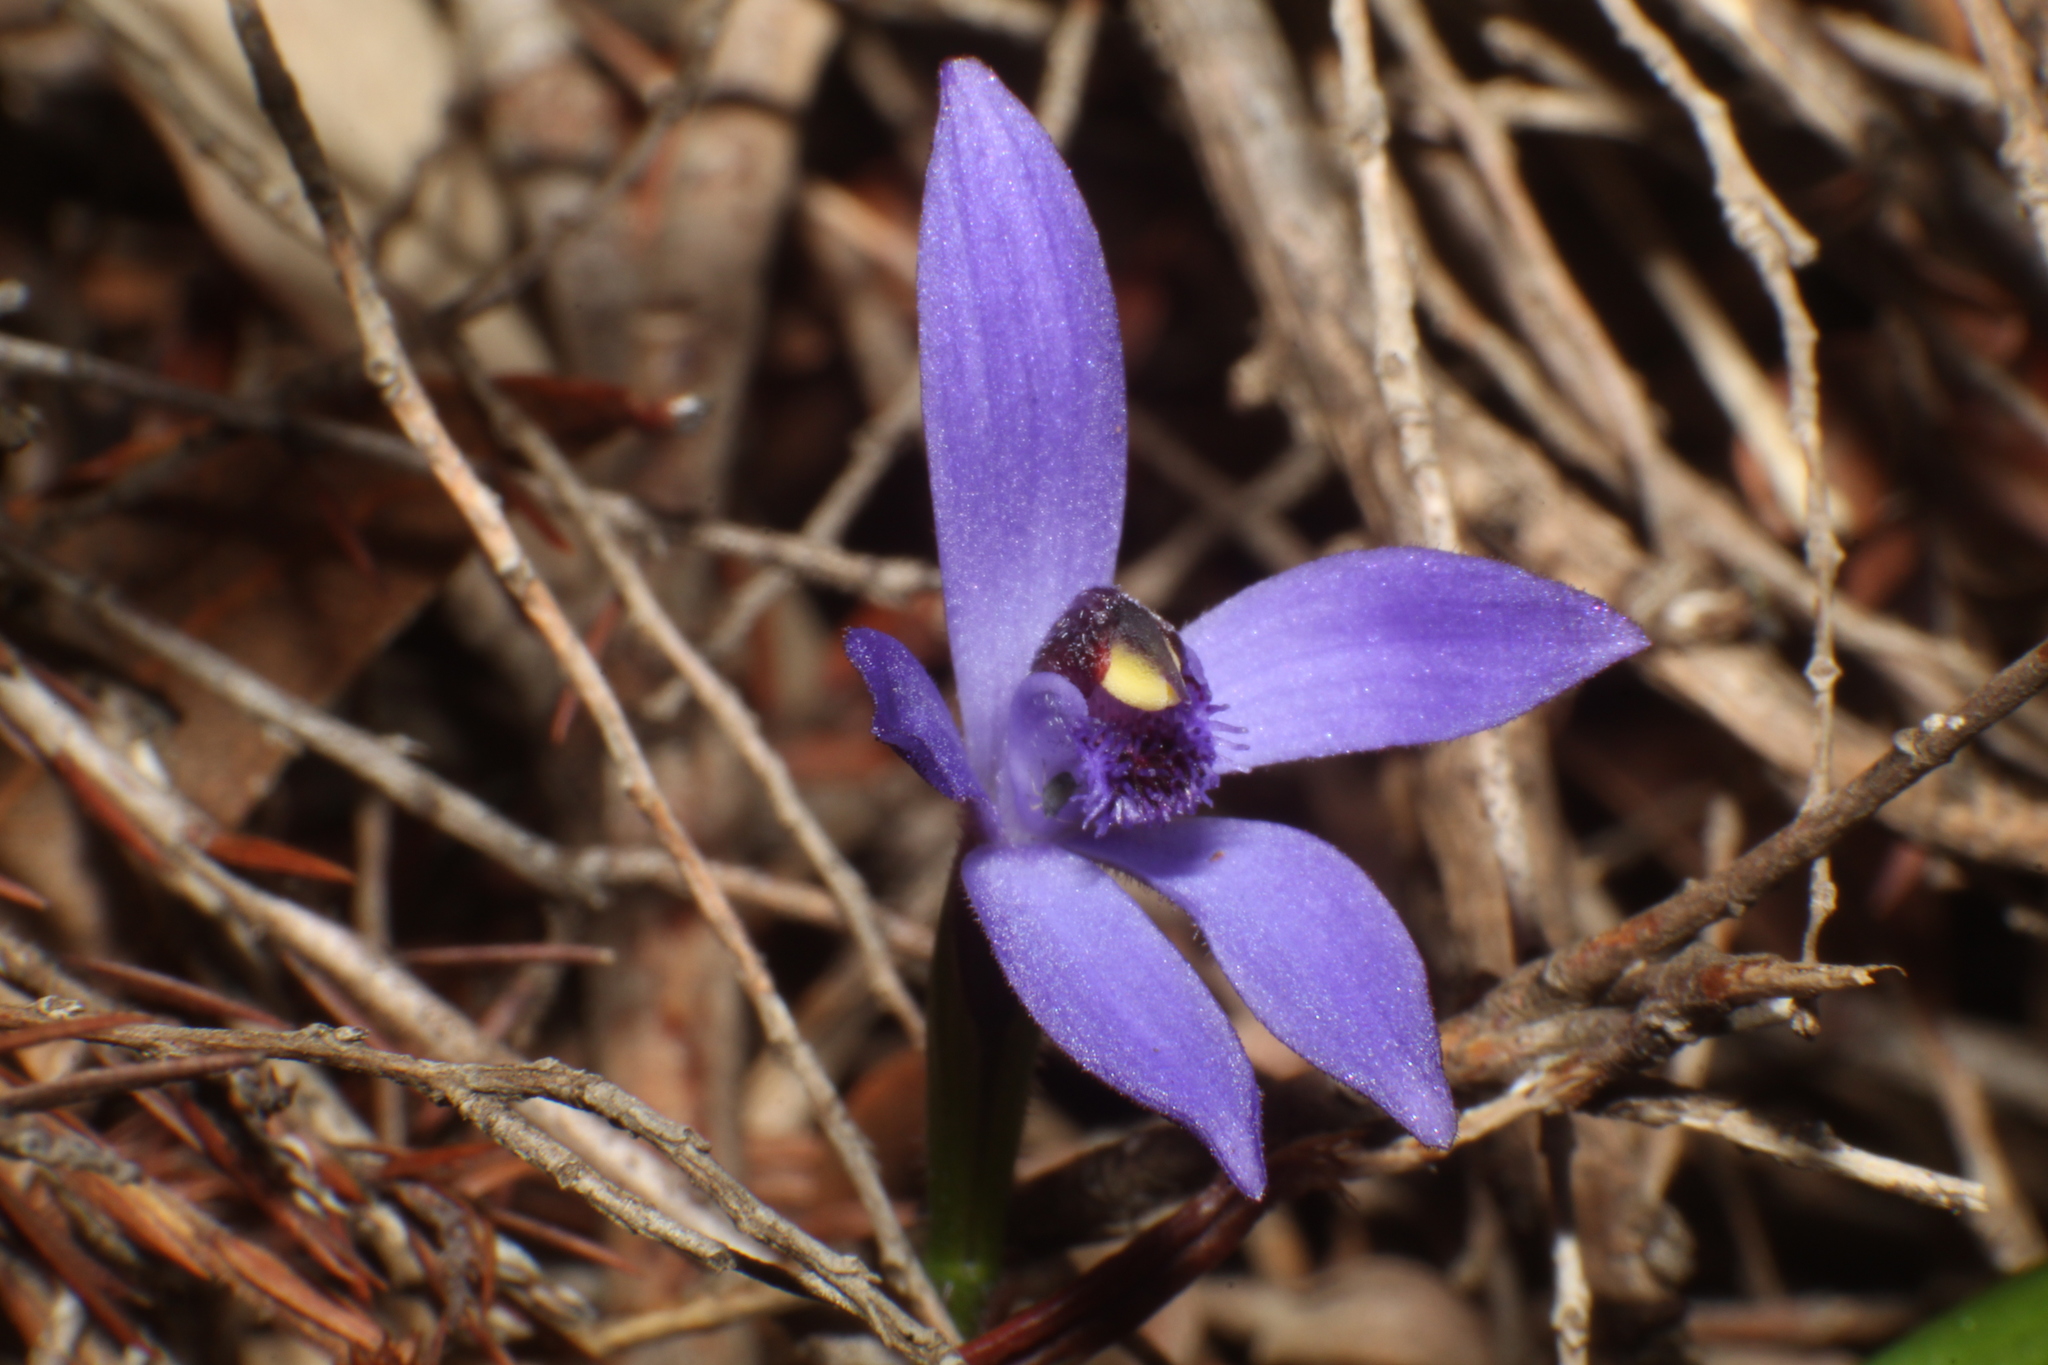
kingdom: Plantae
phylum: Tracheophyta
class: Liliopsida
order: Asparagales
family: Orchidaceae
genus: Pheladenia
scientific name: Pheladenia deformis
